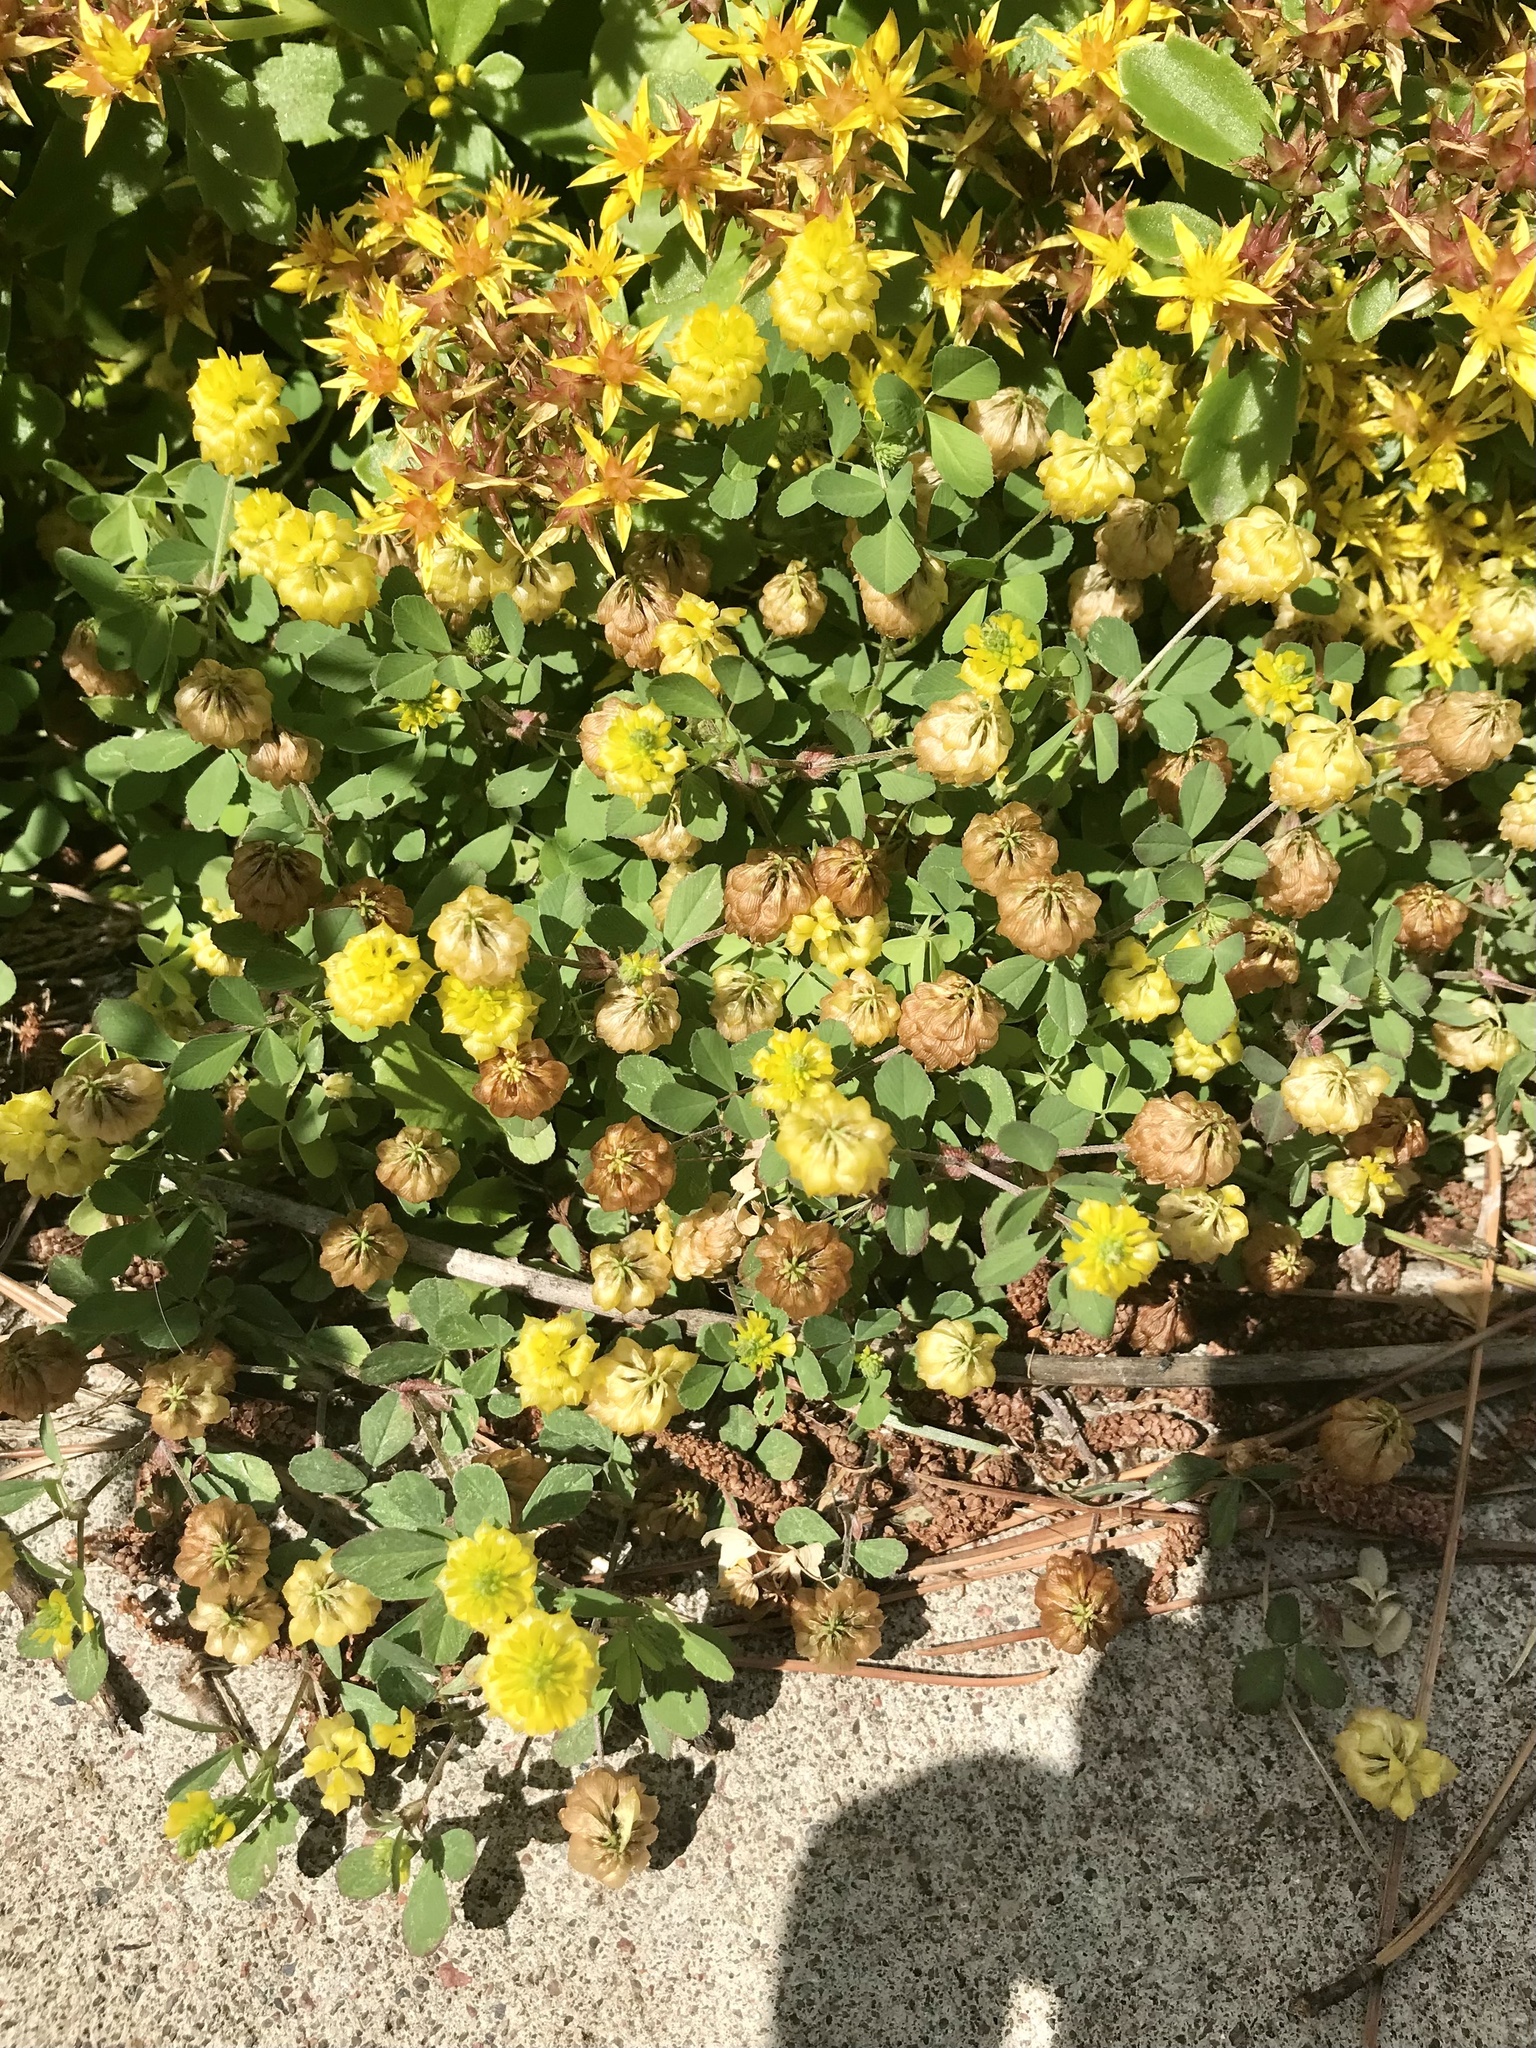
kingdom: Plantae
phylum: Tracheophyta
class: Magnoliopsida
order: Fabales
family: Fabaceae
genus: Trifolium
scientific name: Trifolium campestre
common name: Field clover
